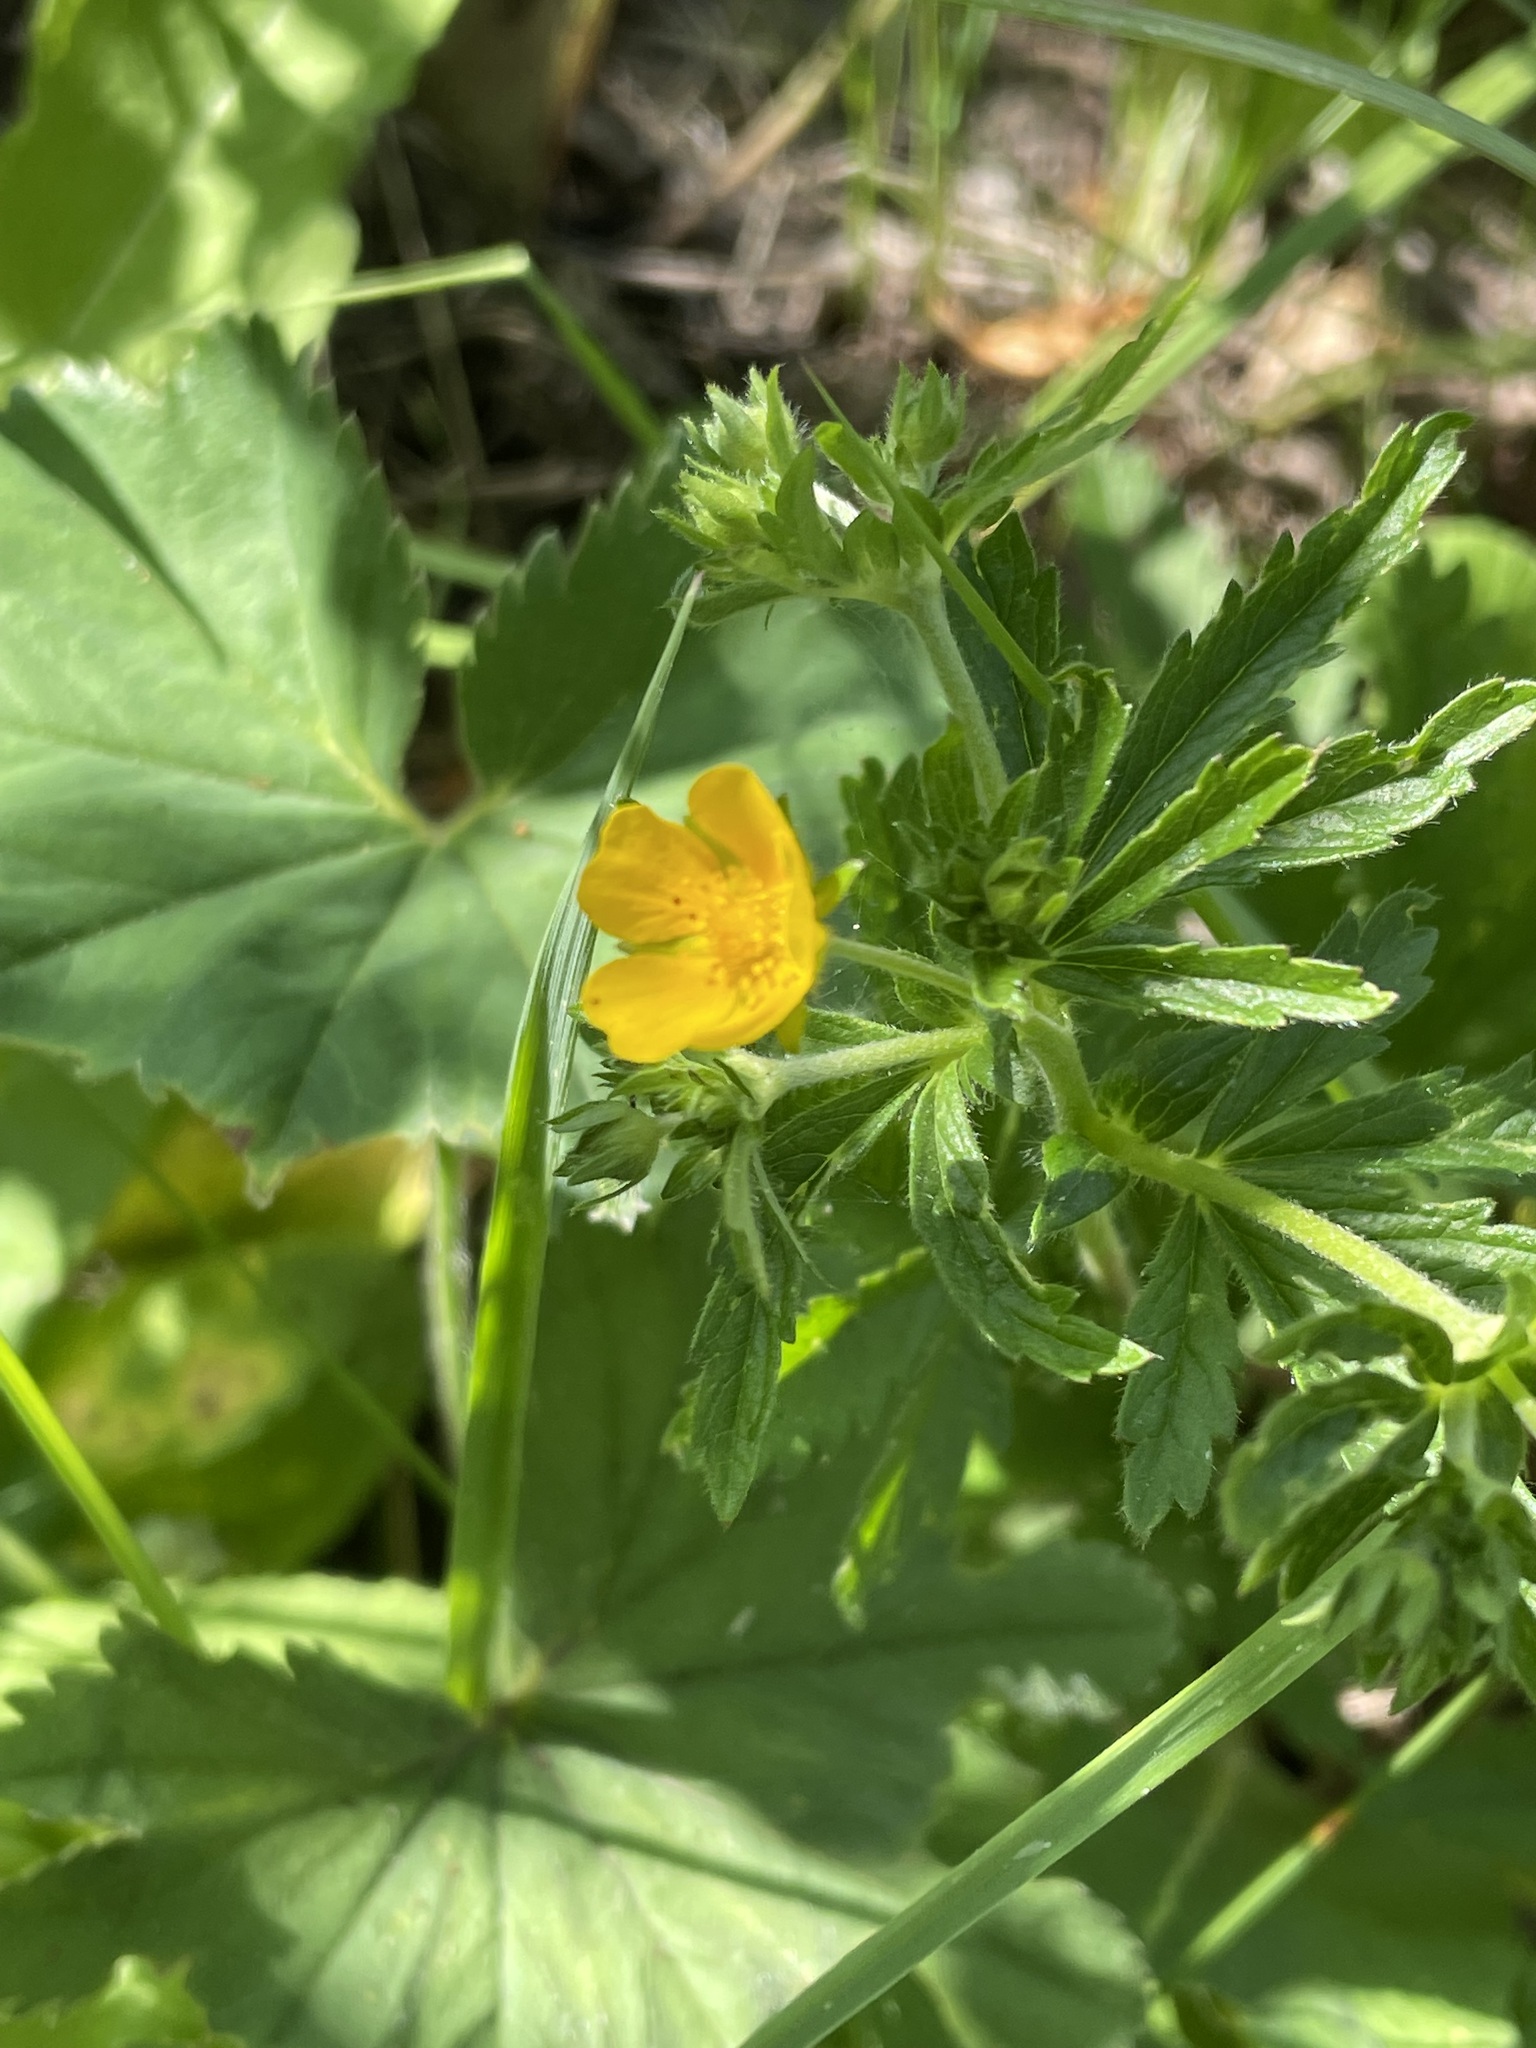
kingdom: Plantae
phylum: Tracheophyta
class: Magnoliopsida
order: Rosales
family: Rosaceae
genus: Potentilla
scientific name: Potentilla thuringiaca
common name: European cinquefoil
